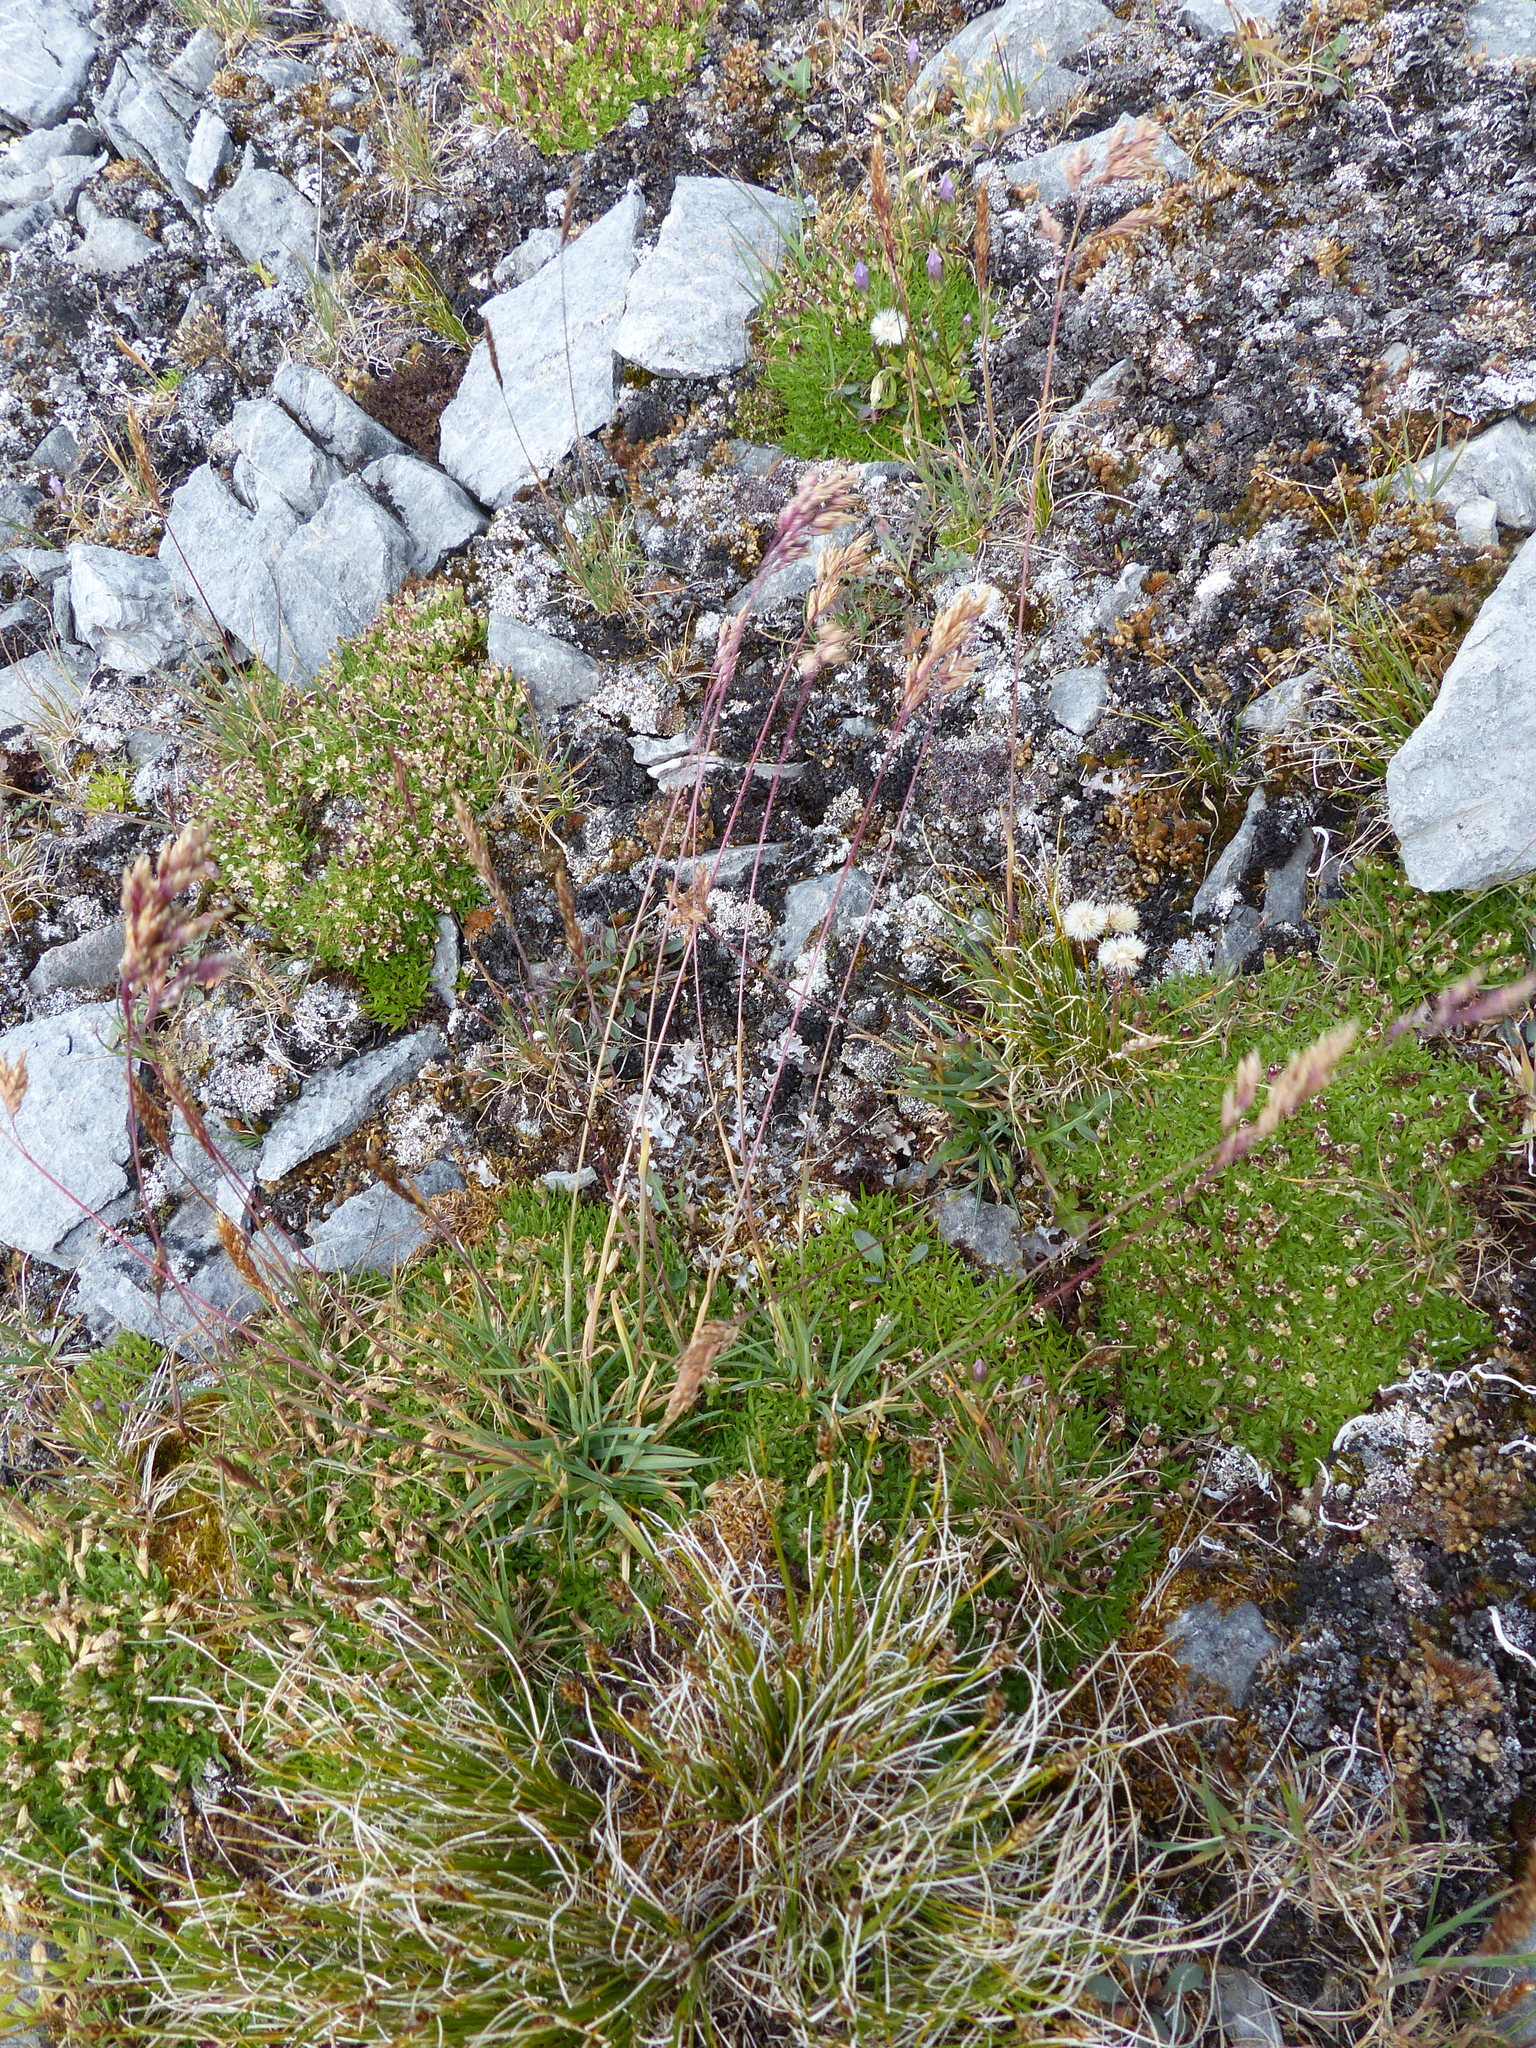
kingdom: Plantae
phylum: Tracheophyta
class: Liliopsida
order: Poales
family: Poaceae
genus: Poa
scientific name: Poa alpina
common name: Alpine bluegrass
